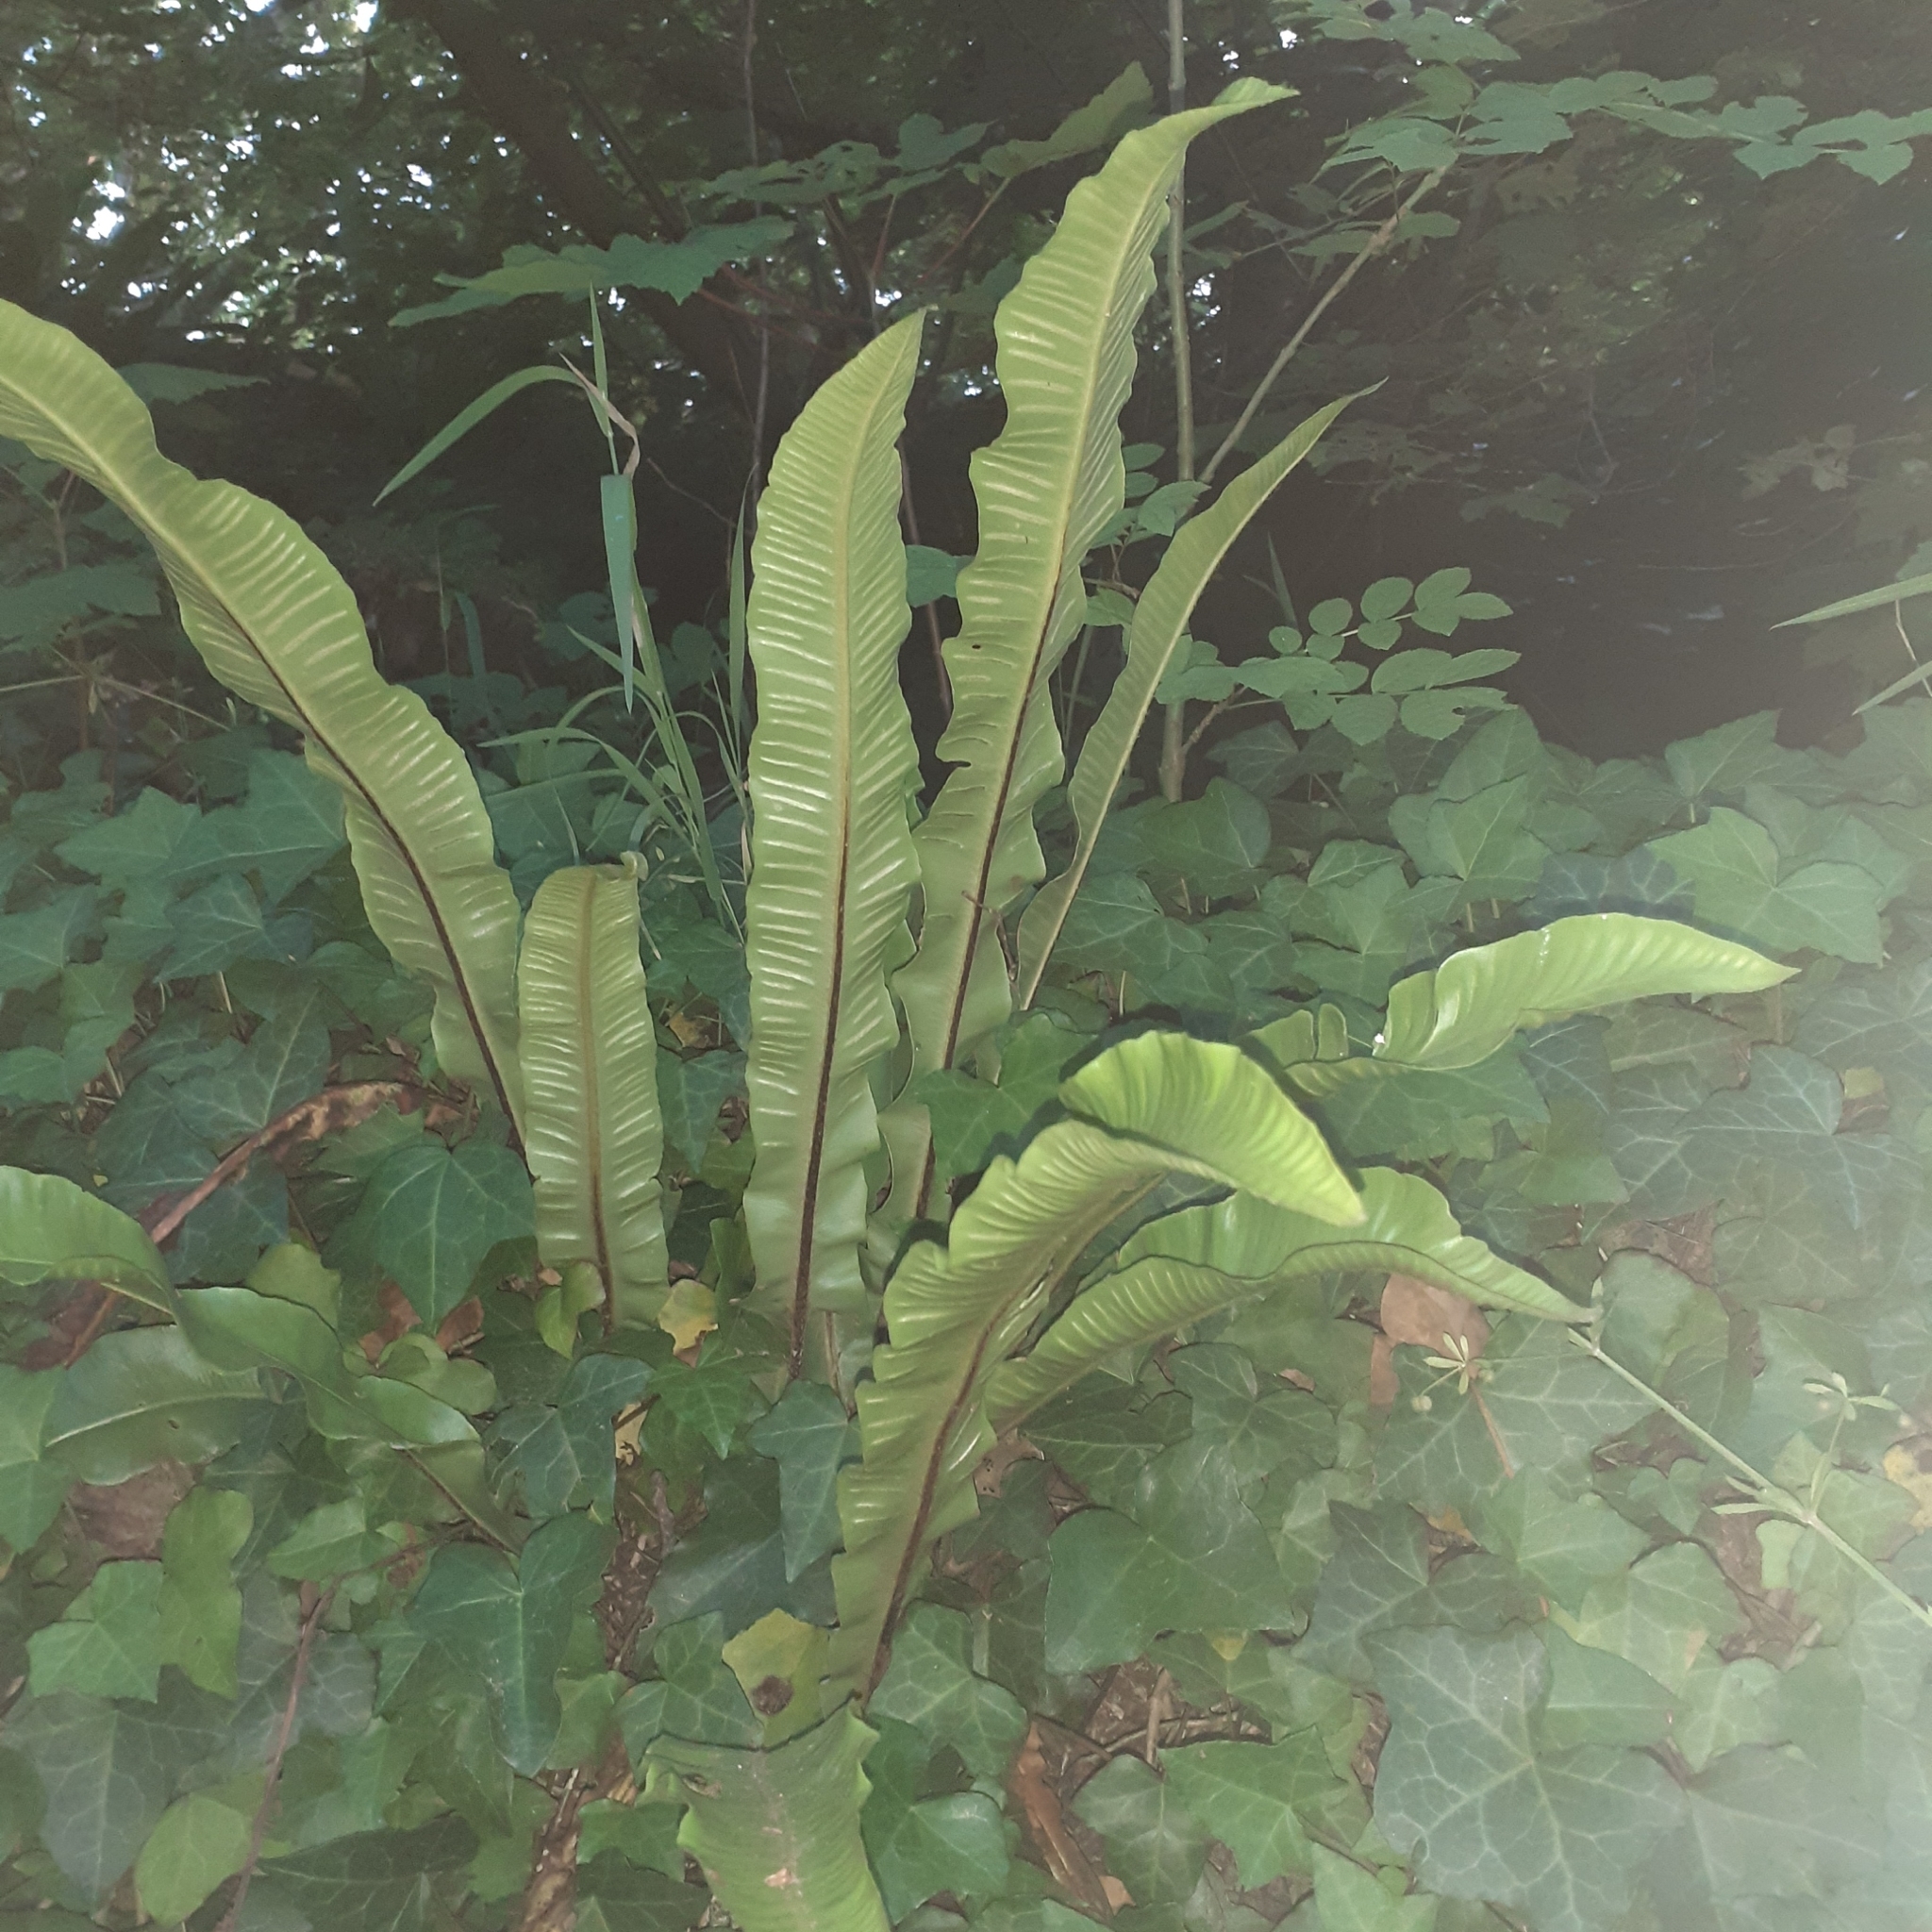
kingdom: Plantae
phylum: Tracheophyta
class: Polypodiopsida
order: Polypodiales
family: Aspleniaceae
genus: Asplenium
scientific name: Asplenium scolopendrium
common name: Hart's-tongue fern
